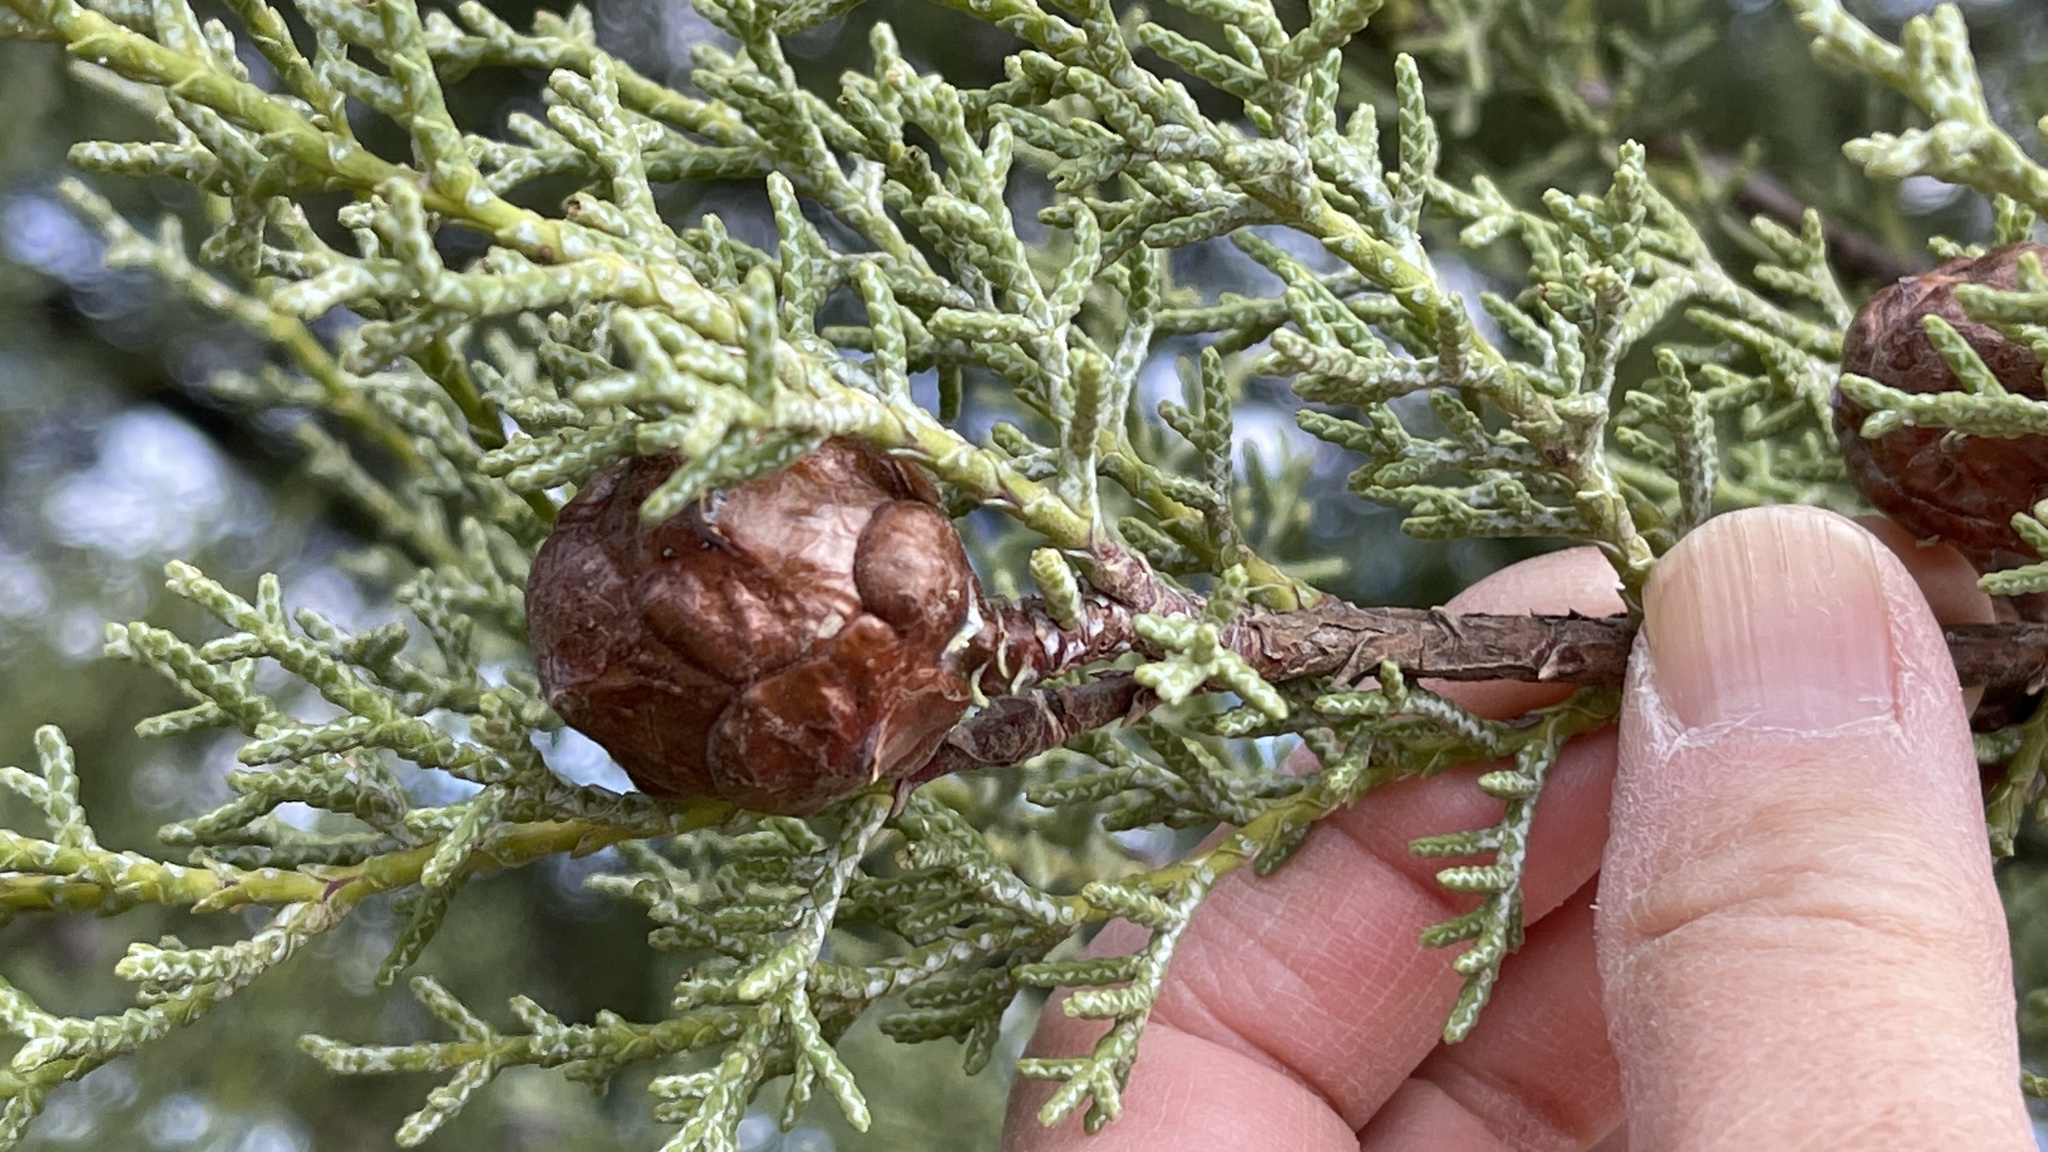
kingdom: Plantae
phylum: Tracheophyta
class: Pinopsida
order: Pinales
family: Cupressaceae
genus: Cupressus
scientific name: Cupressus sargentii
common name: Sargent cypress
